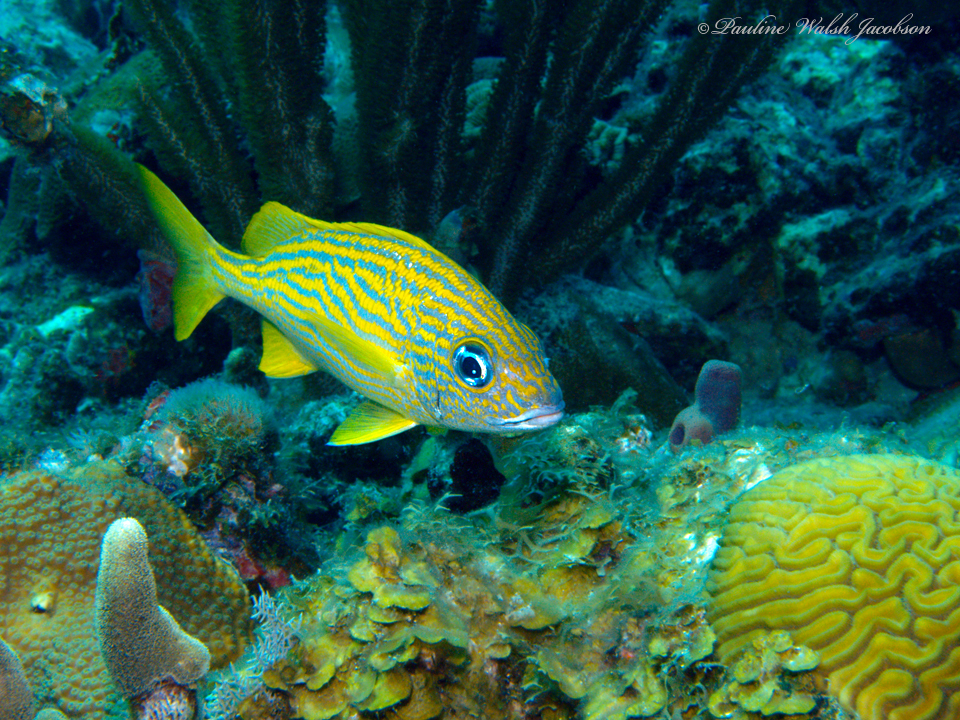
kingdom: Animalia
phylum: Chordata
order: Perciformes
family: Haemulidae
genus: Haemulon
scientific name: Haemulon flavolineatum
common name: French grunt
